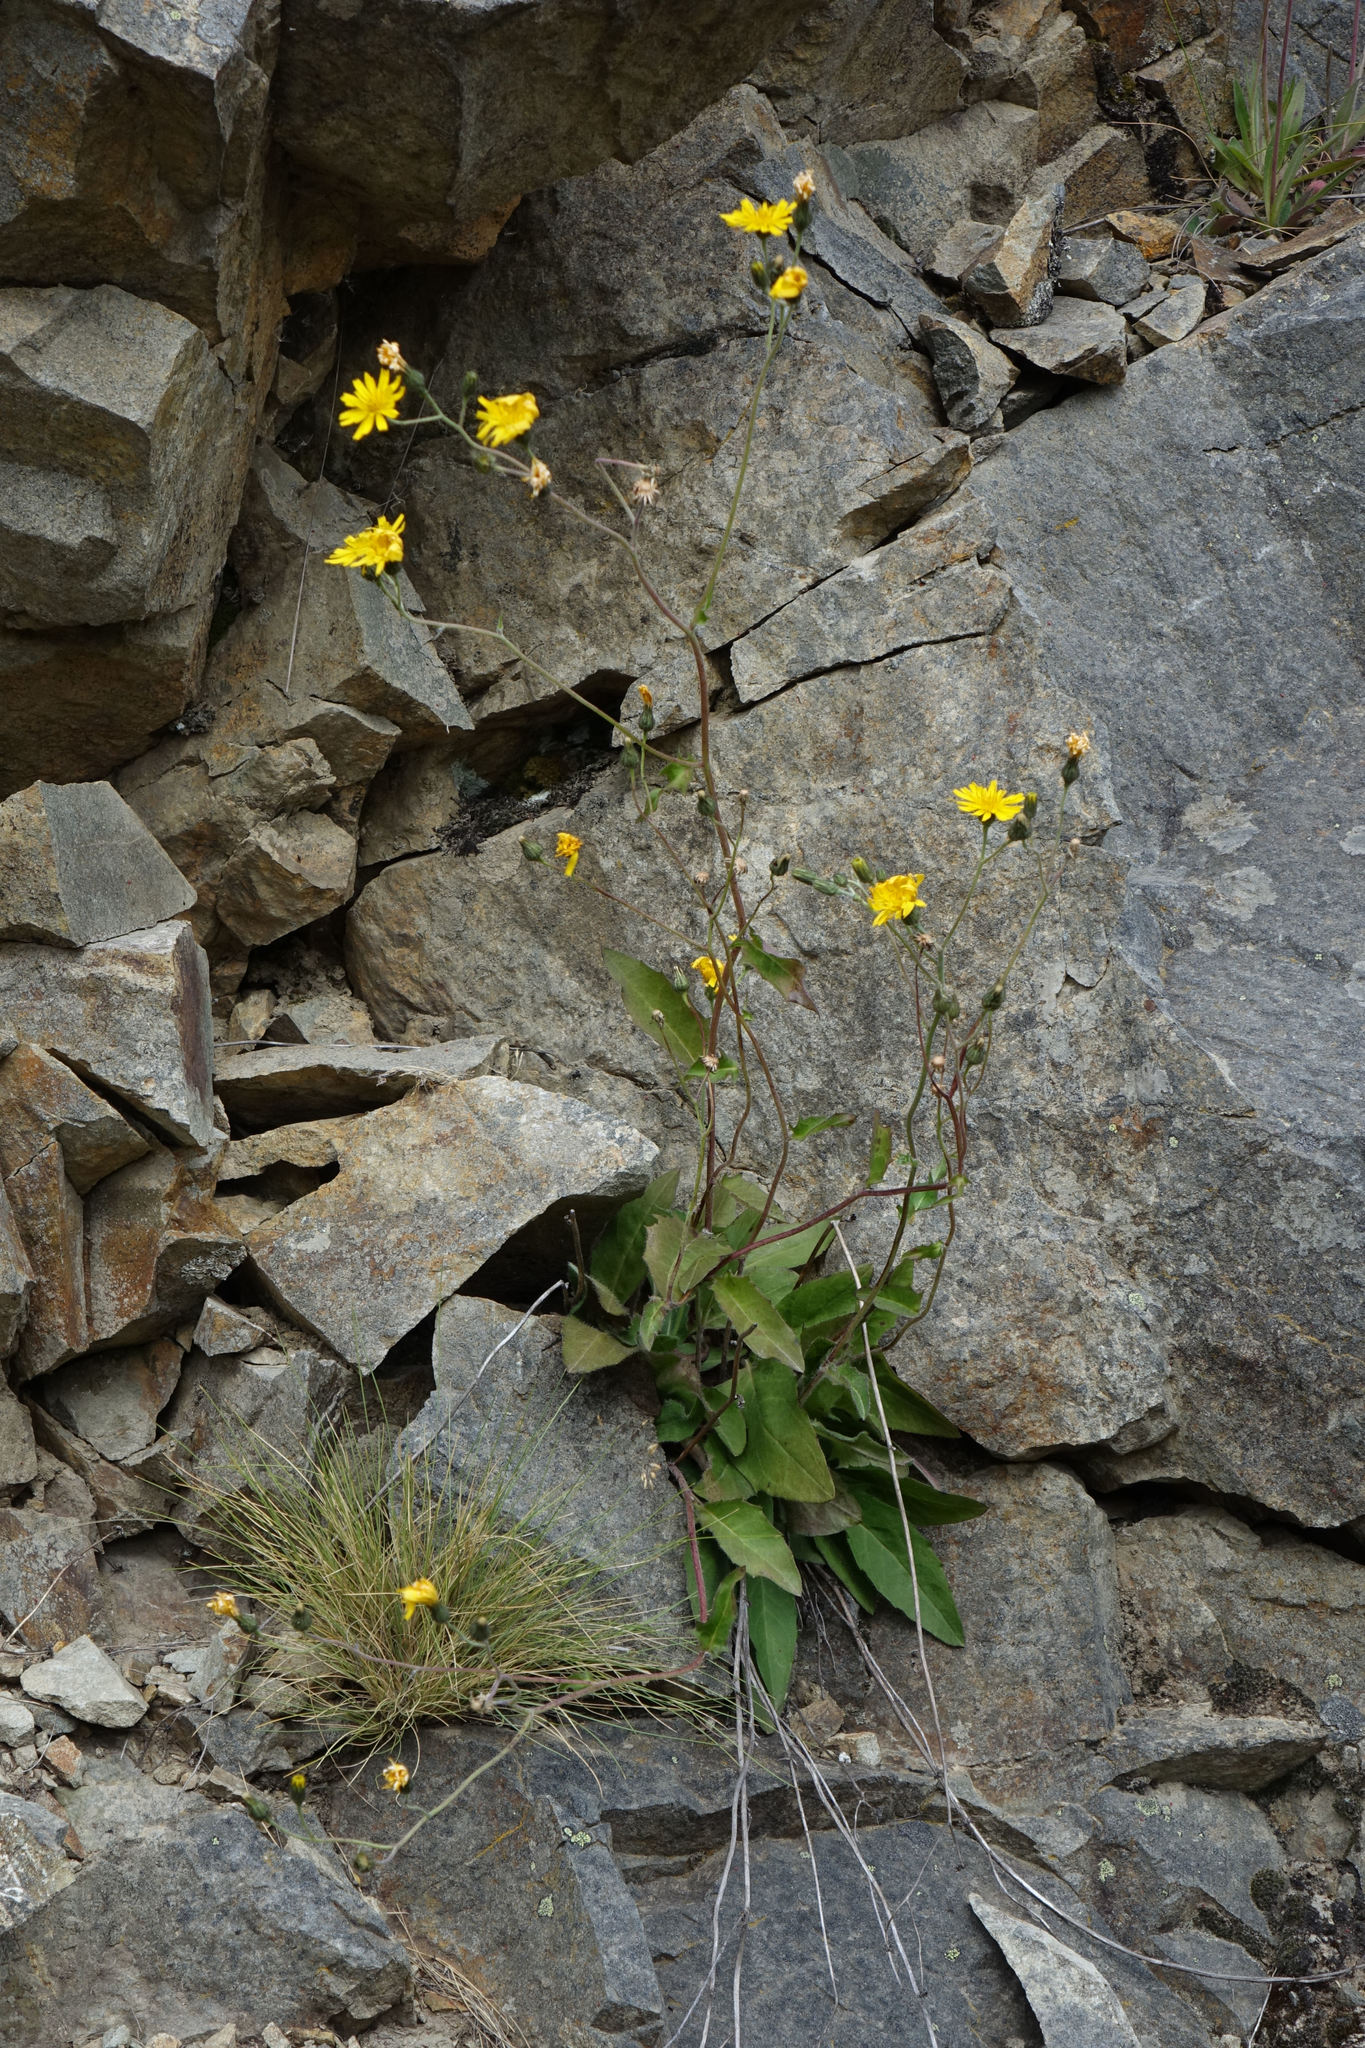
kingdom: Plantae
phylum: Tracheophyta
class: Magnoliopsida
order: Asterales
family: Asteraceae
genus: Hieracium
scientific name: Hieracium lepidulum
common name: Irregular-toothed hawkweed
